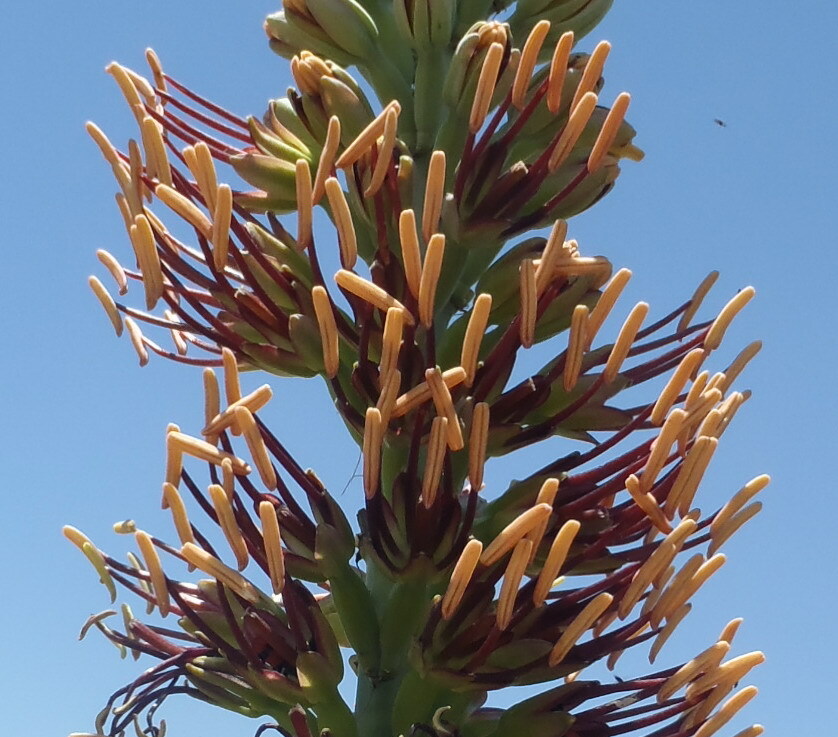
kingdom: Plantae
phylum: Tracheophyta
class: Liliopsida
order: Asparagales
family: Asparagaceae
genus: Agave
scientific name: Agave lechuguilla
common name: Lecheguilla agave
